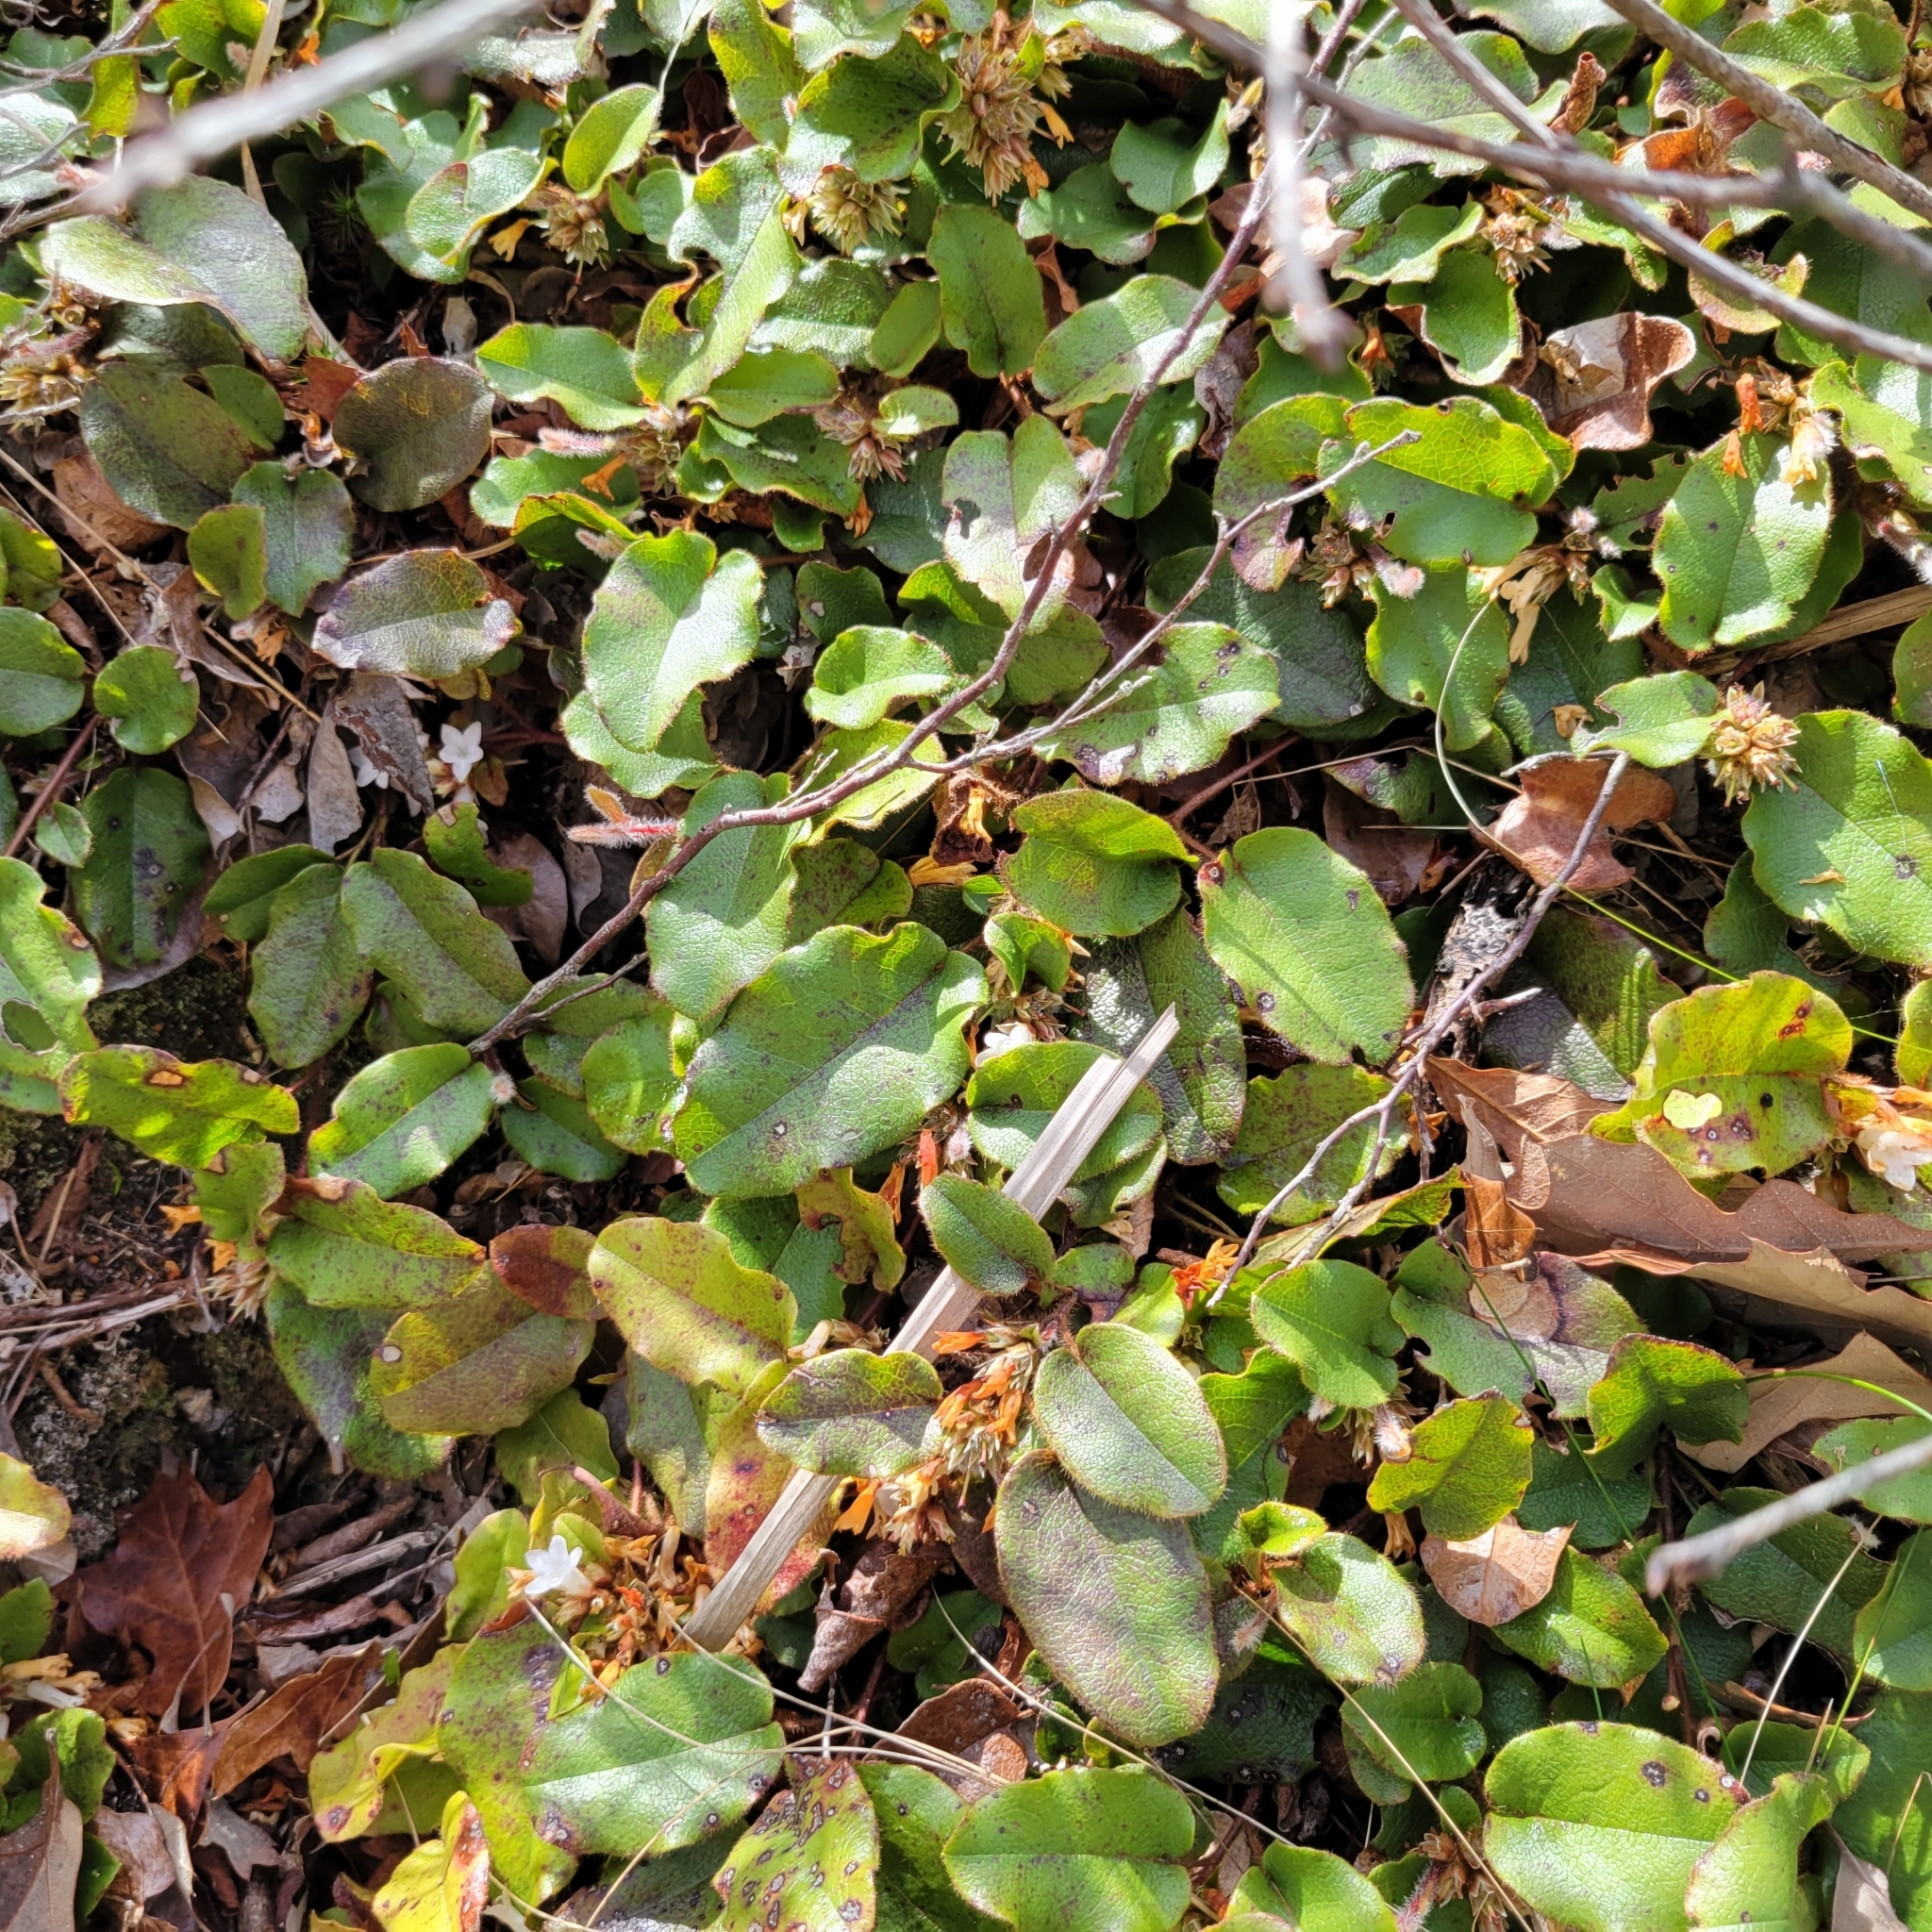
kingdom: Plantae
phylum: Tracheophyta
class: Magnoliopsida
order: Ericales
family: Ericaceae
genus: Epigaea
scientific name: Epigaea repens
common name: Gravelroot
